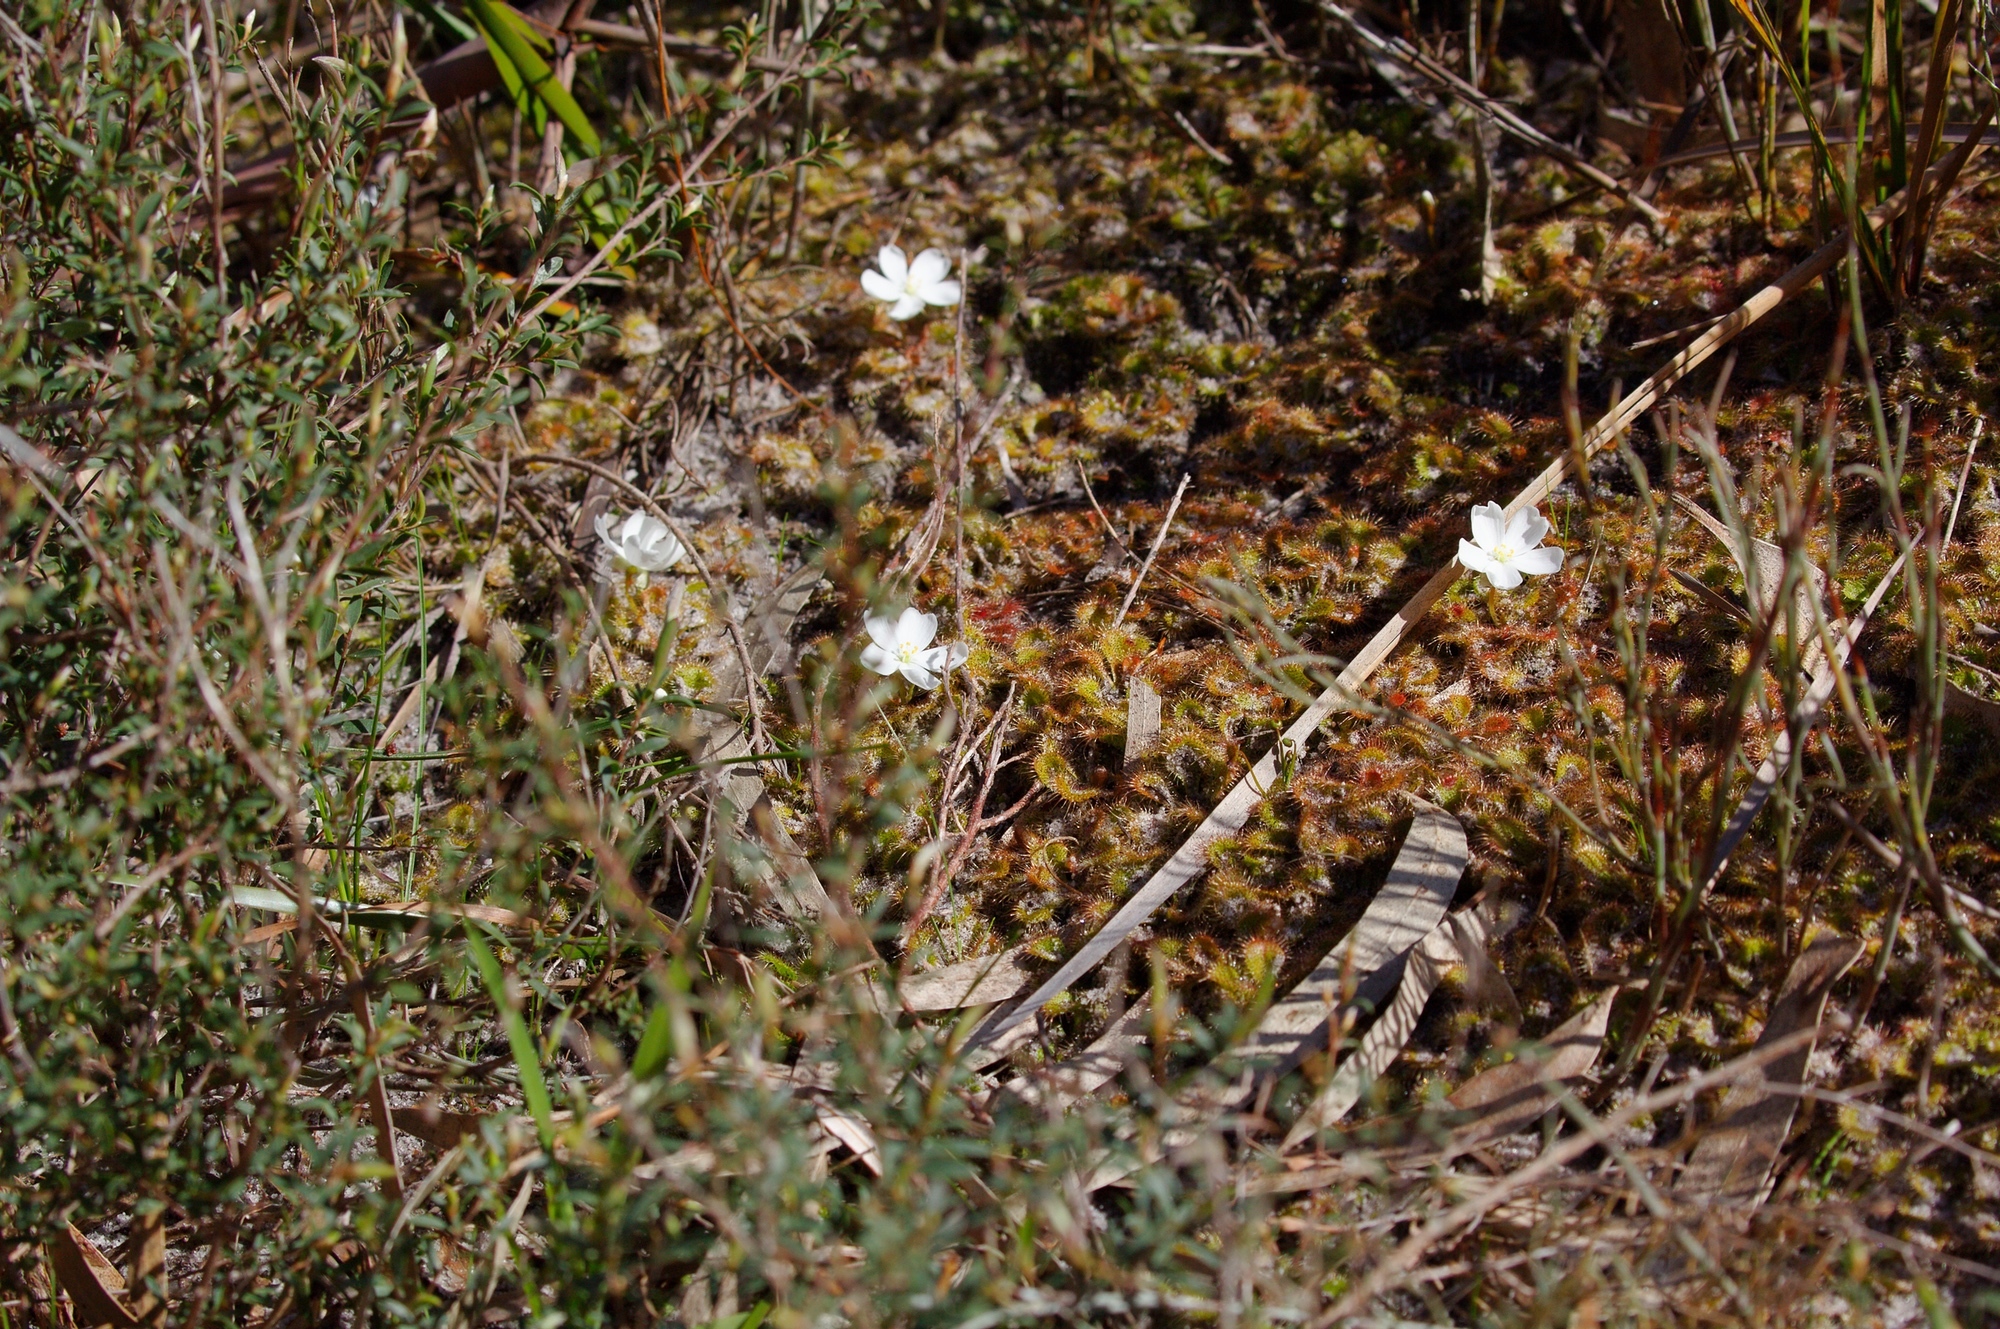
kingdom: Plantae
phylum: Tracheophyta
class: Magnoliopsida
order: Caryophyllales
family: Droseraceae
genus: Drosera
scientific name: Drosera aberrans
